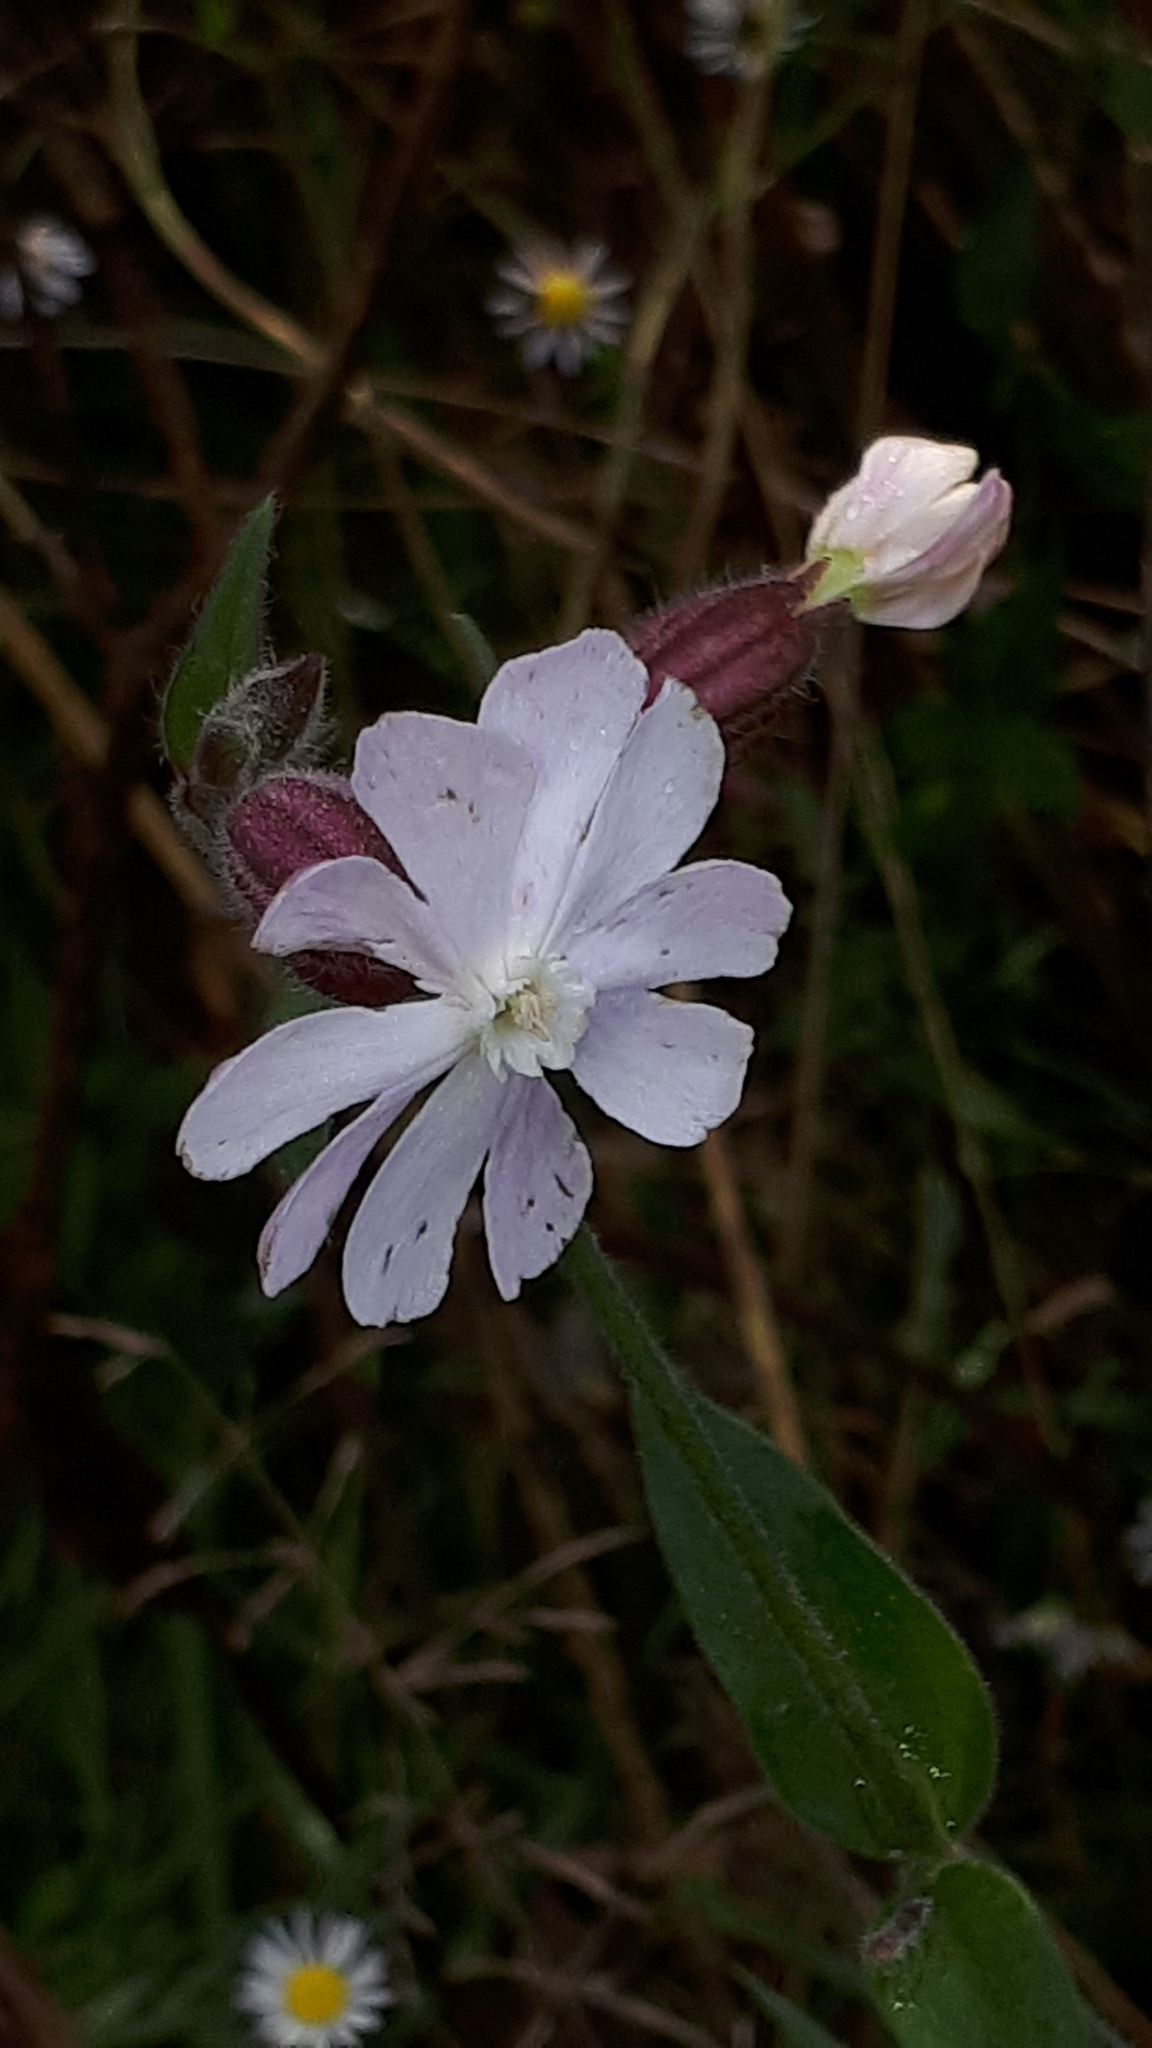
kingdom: Plantae
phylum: Tracheophyta
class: Magnoliopsida
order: Caryophyllales
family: Caryophyllaceae
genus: Silene
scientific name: Silene latifolia
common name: White campion
